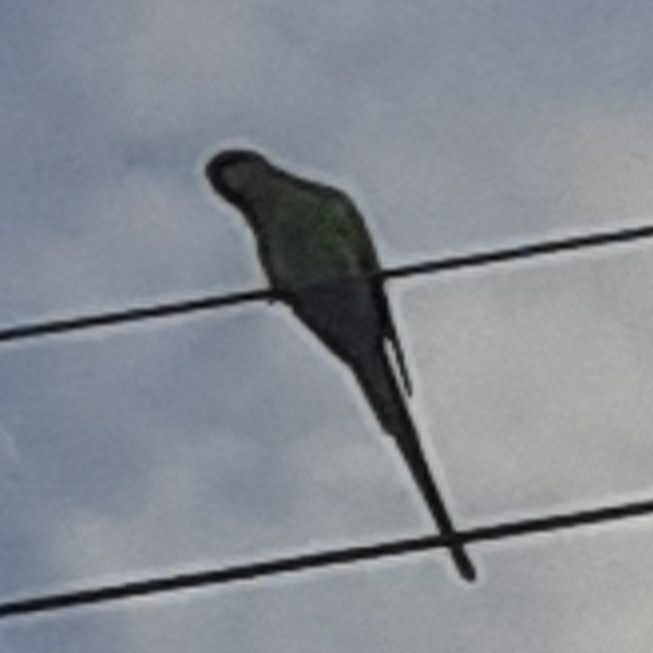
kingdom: Animalia
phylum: Chordata
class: Aves
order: Psittaciformes
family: Psittacidae
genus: Psittacula
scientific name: Psittacula krameri
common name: Rose-ringed parakeet
